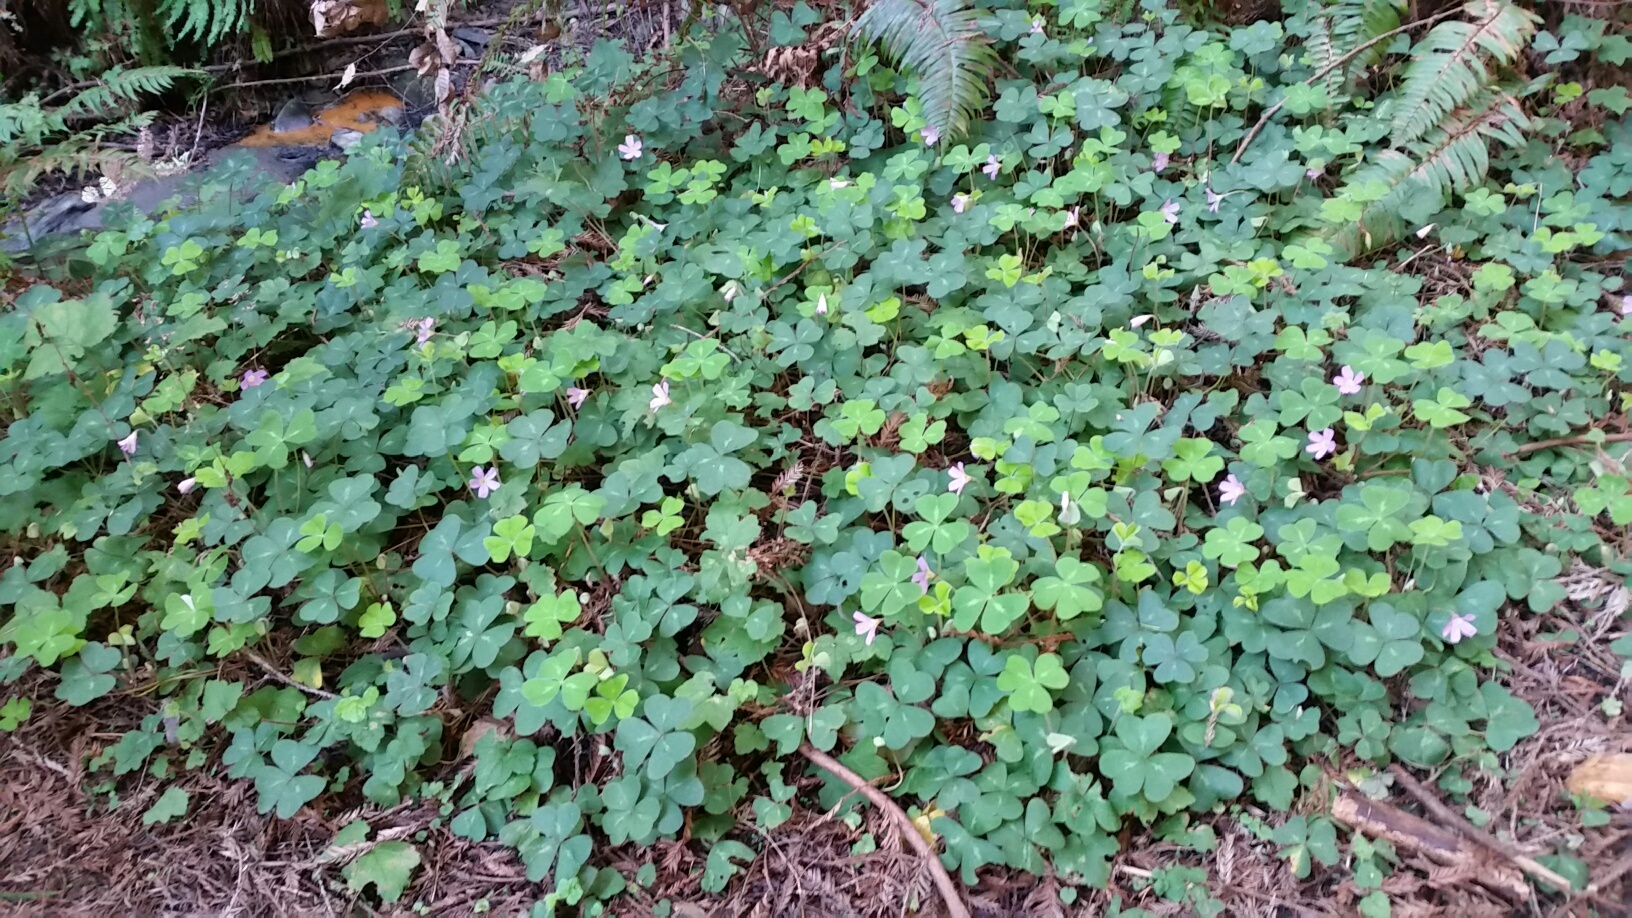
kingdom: Plantae
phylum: Tracheophyta
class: Magnoliopsida
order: Oxalidales
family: Oxalidaceae
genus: Oxalis
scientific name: Oxalis oregana
